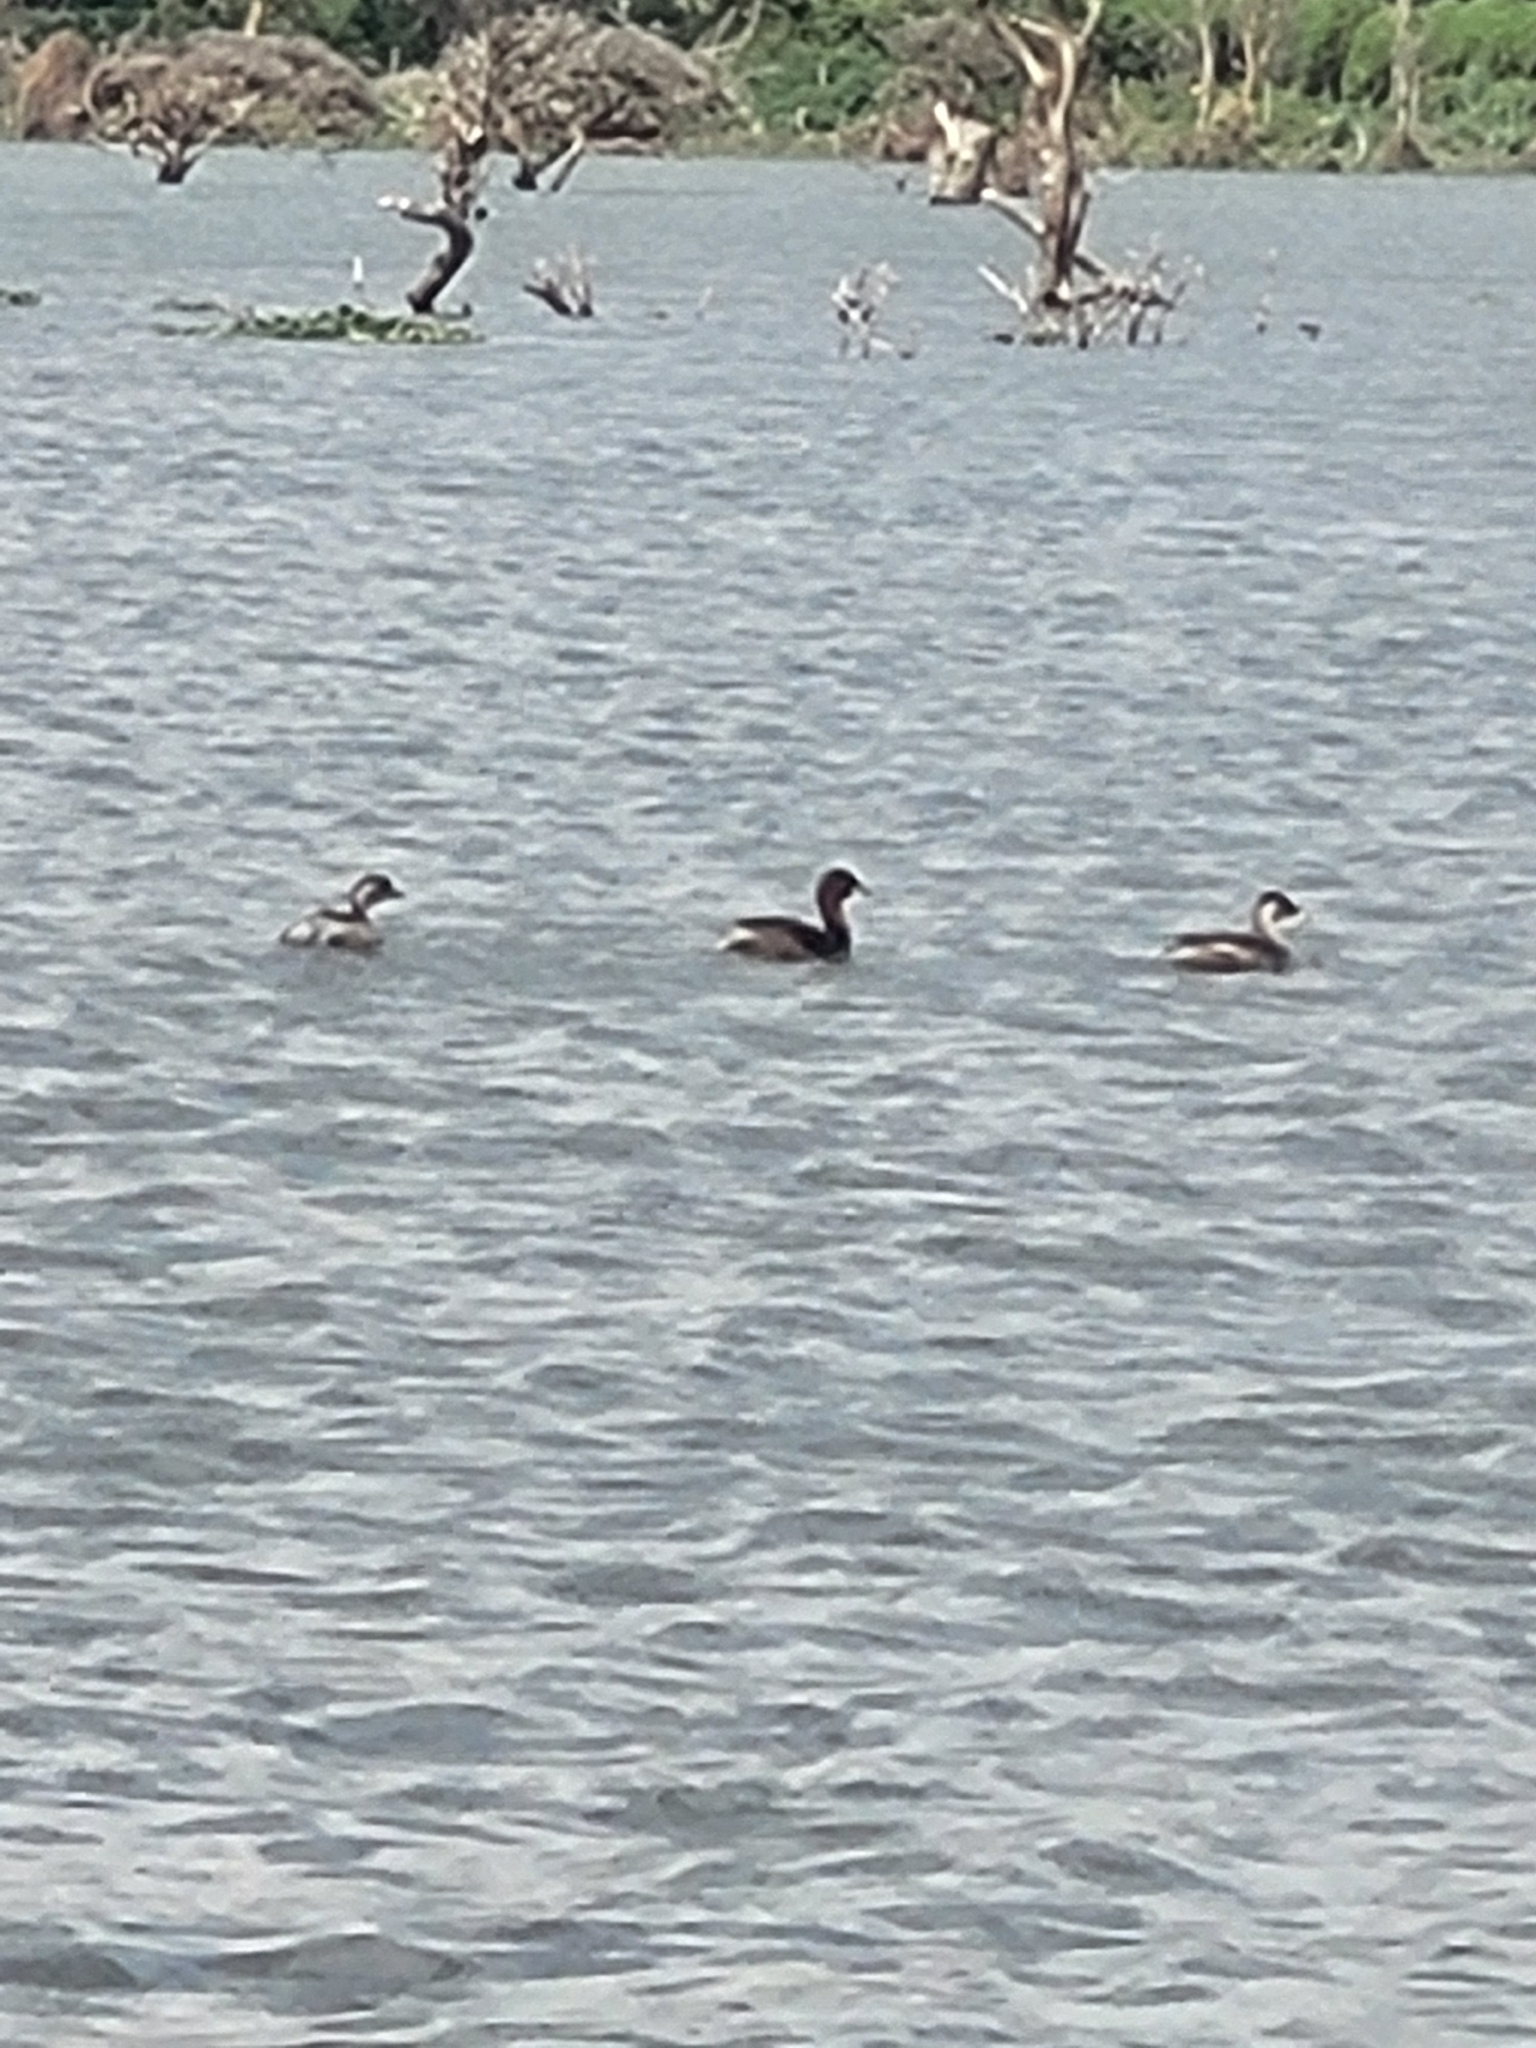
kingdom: Animalia
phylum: Chordata
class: Aves
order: Podicipediformes
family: Podicipedidae
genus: Tachybaptus
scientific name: Tachybaptus ruficollis
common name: Little grebe
